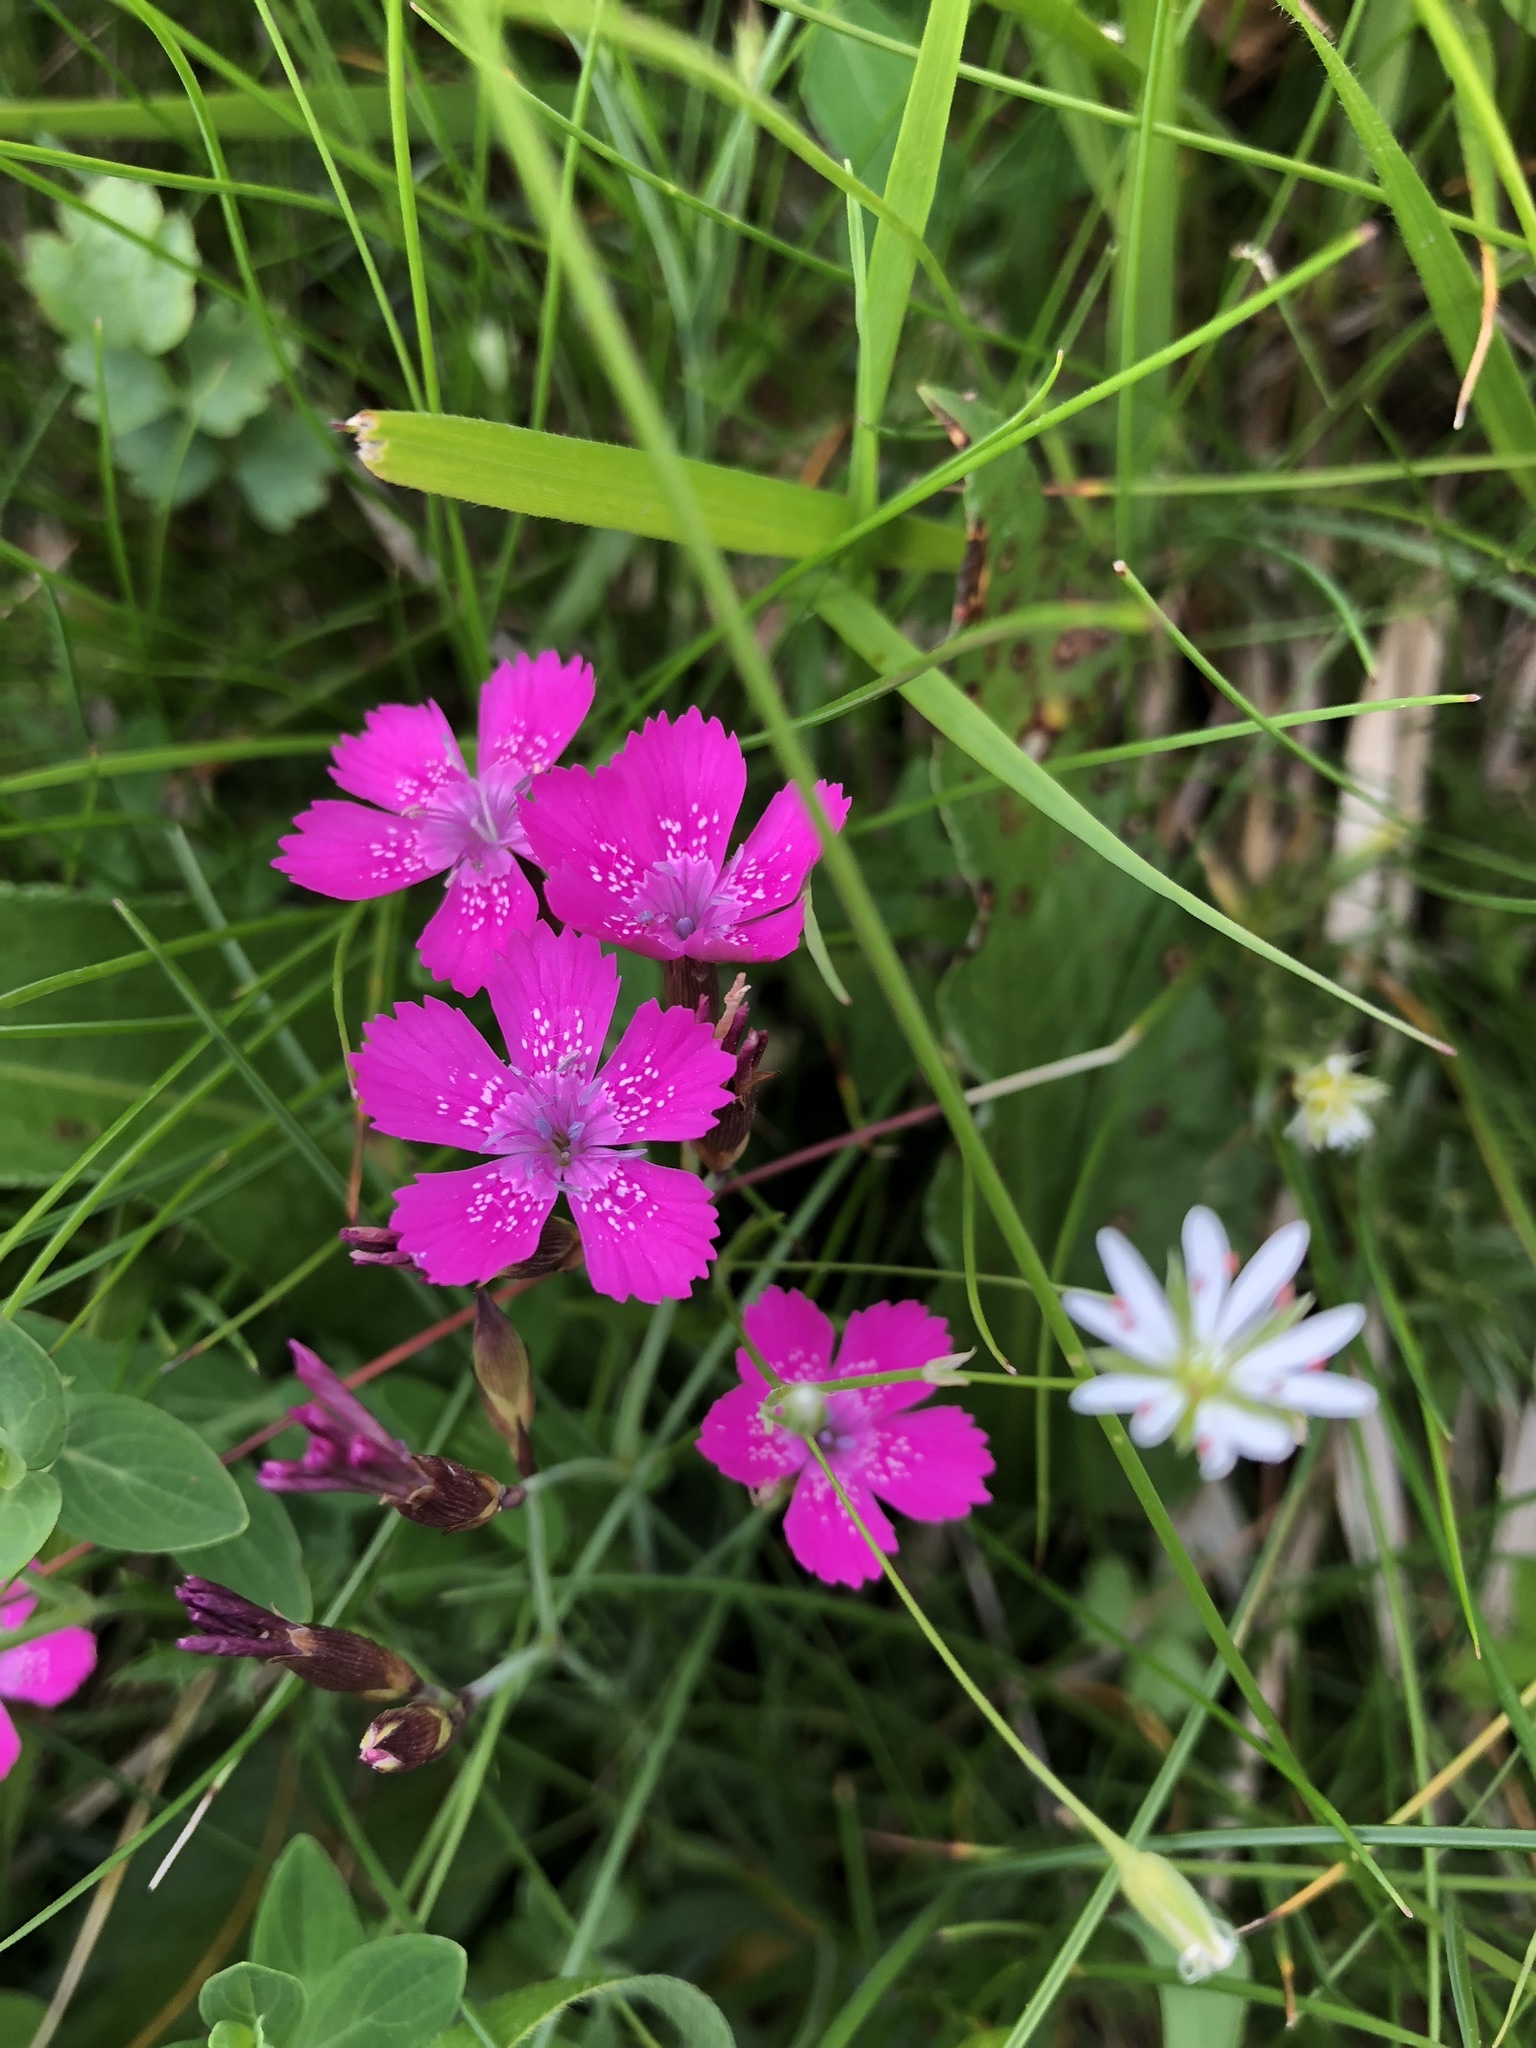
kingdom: Plantae
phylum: Tracheophyta
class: Magnoliopsida
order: Caryophyllales
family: Caryophyllaceae
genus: Dianthus
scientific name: Dianthus deltoides
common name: Maiden pink
